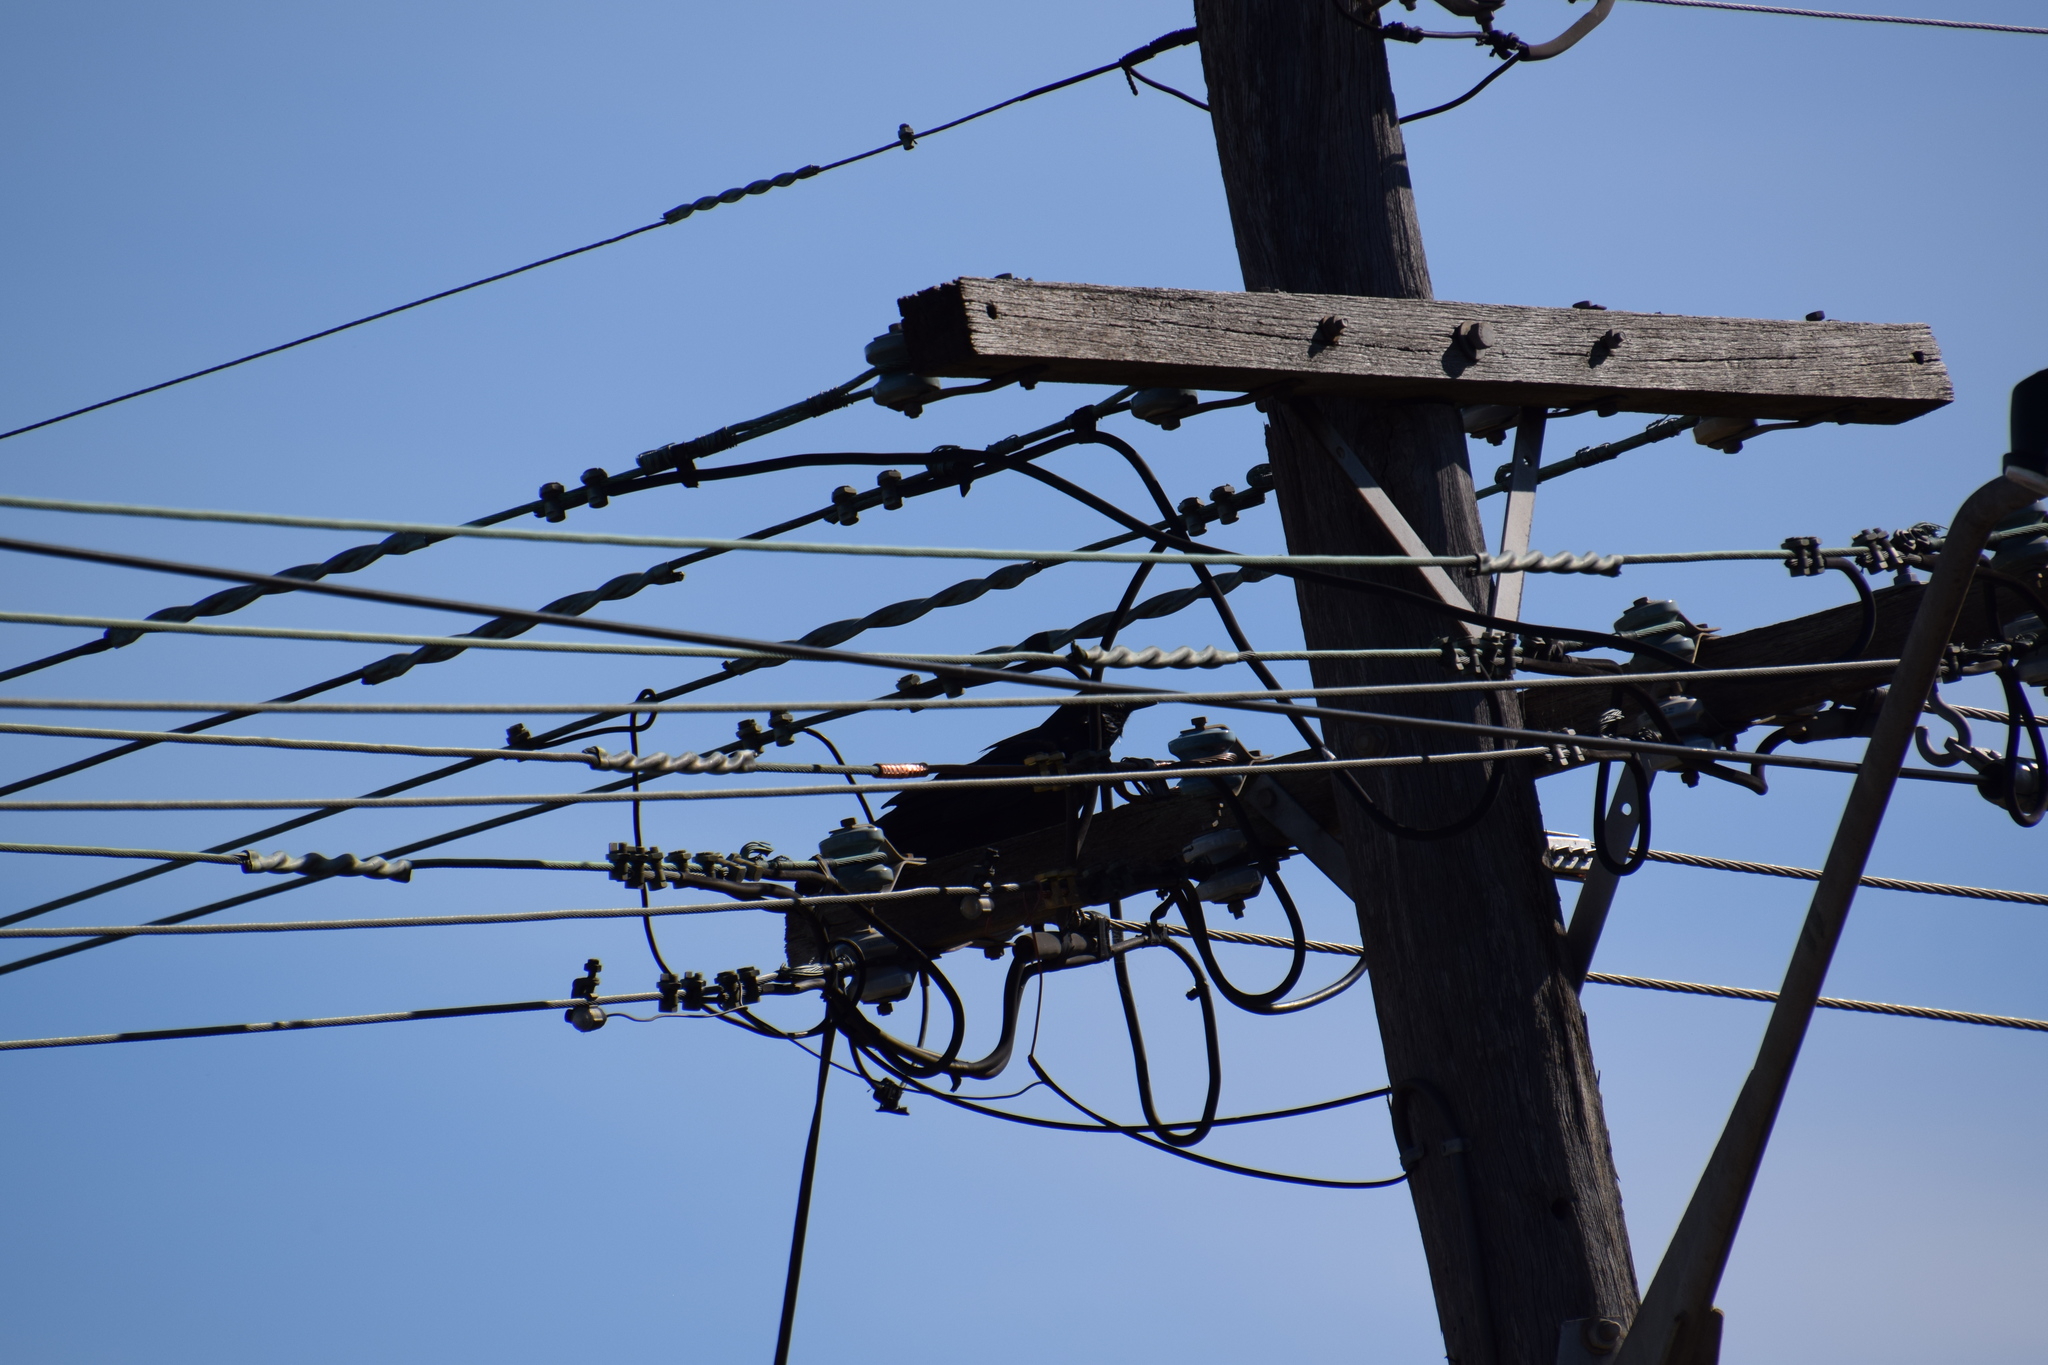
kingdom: Animalia
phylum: Chordata
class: Aves
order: Passeriformes
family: Corvidae
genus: Corvus
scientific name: Corvus coronoides
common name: Australian raven
